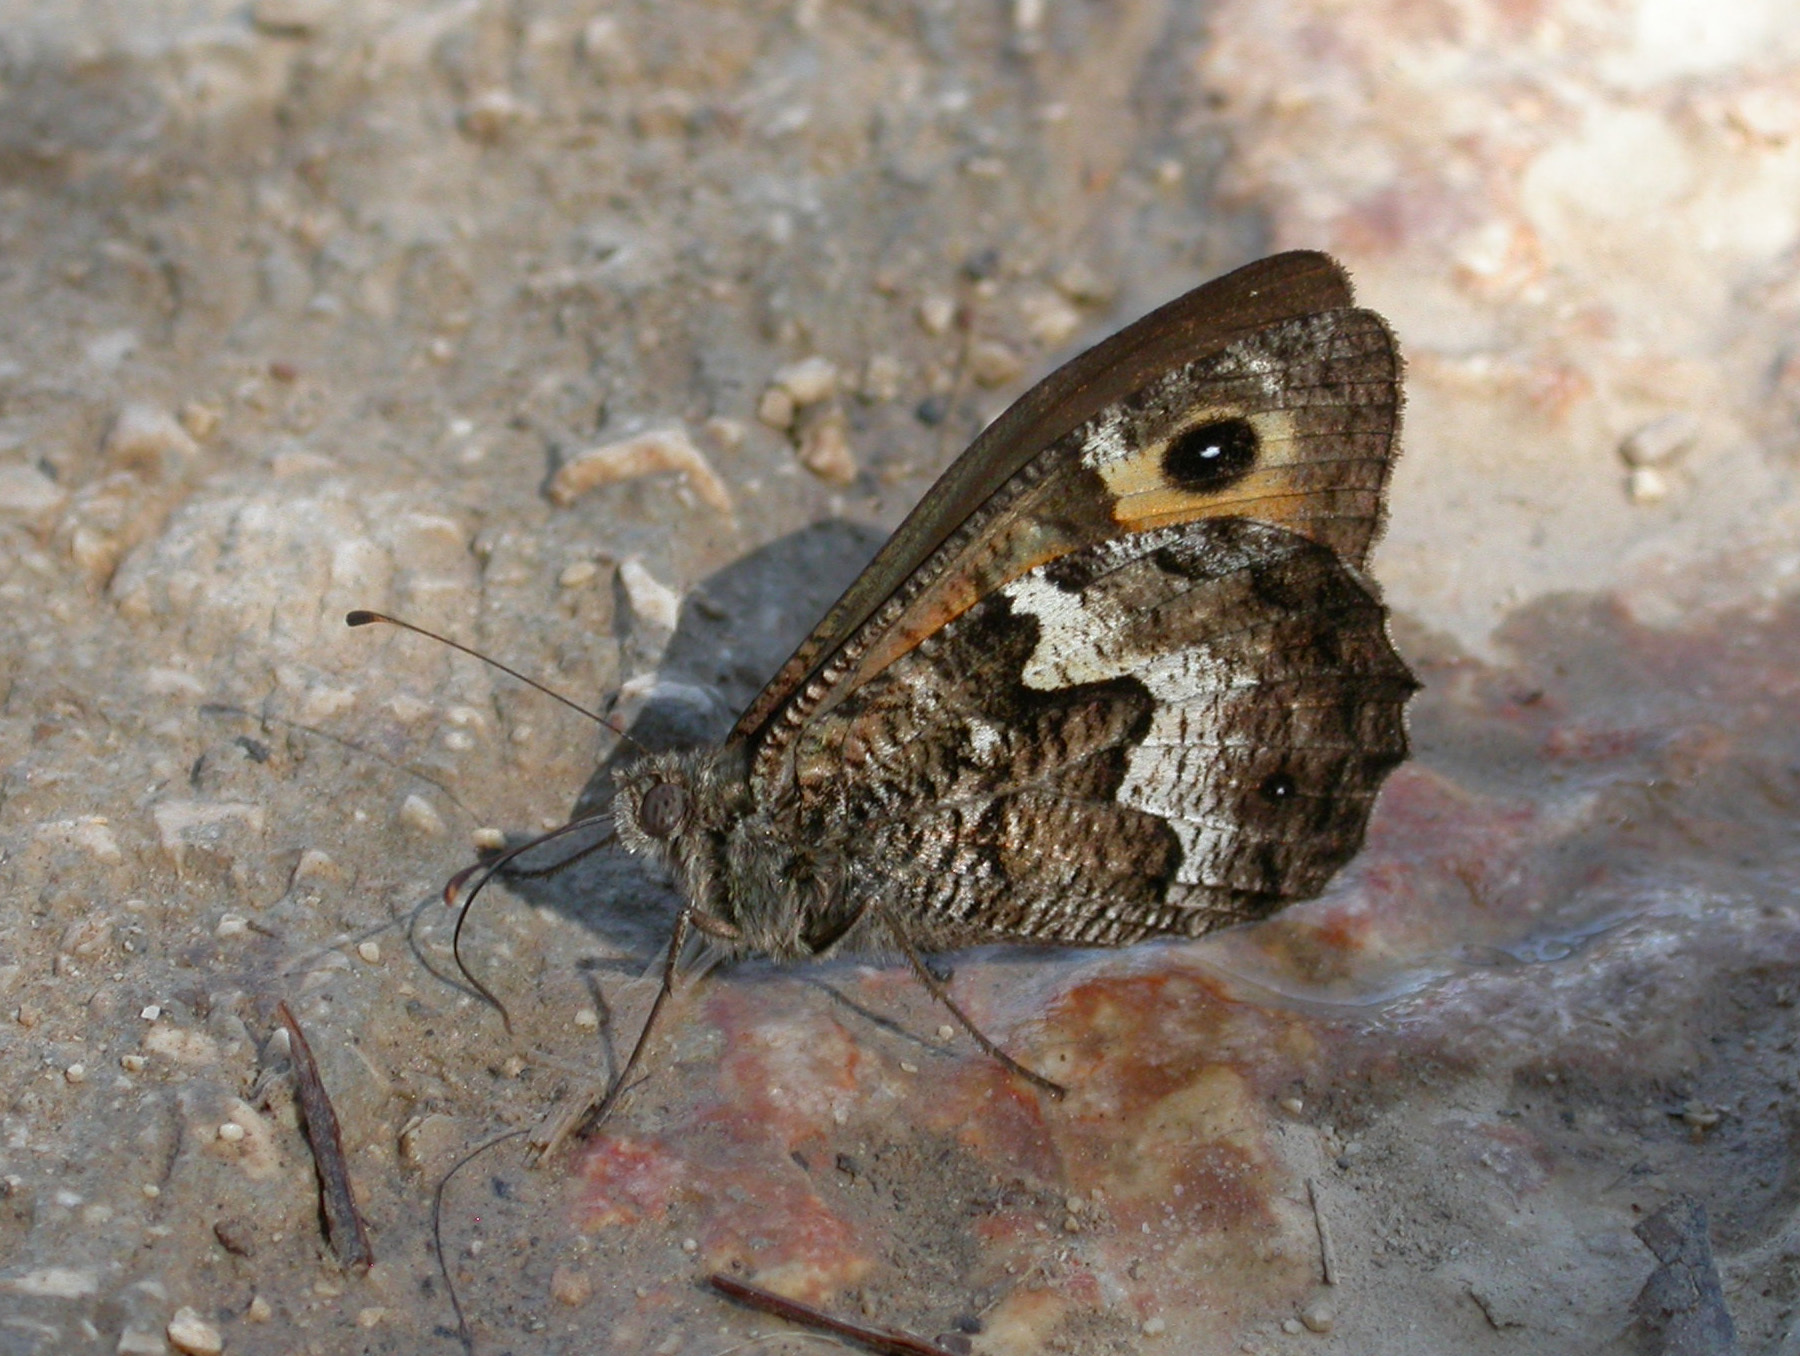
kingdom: Animalia
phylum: Arthropoda
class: Insecta
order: Lepidoptera
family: Nymphalidae
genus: Hipparchia
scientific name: Hipparchia semele
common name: Grayling
